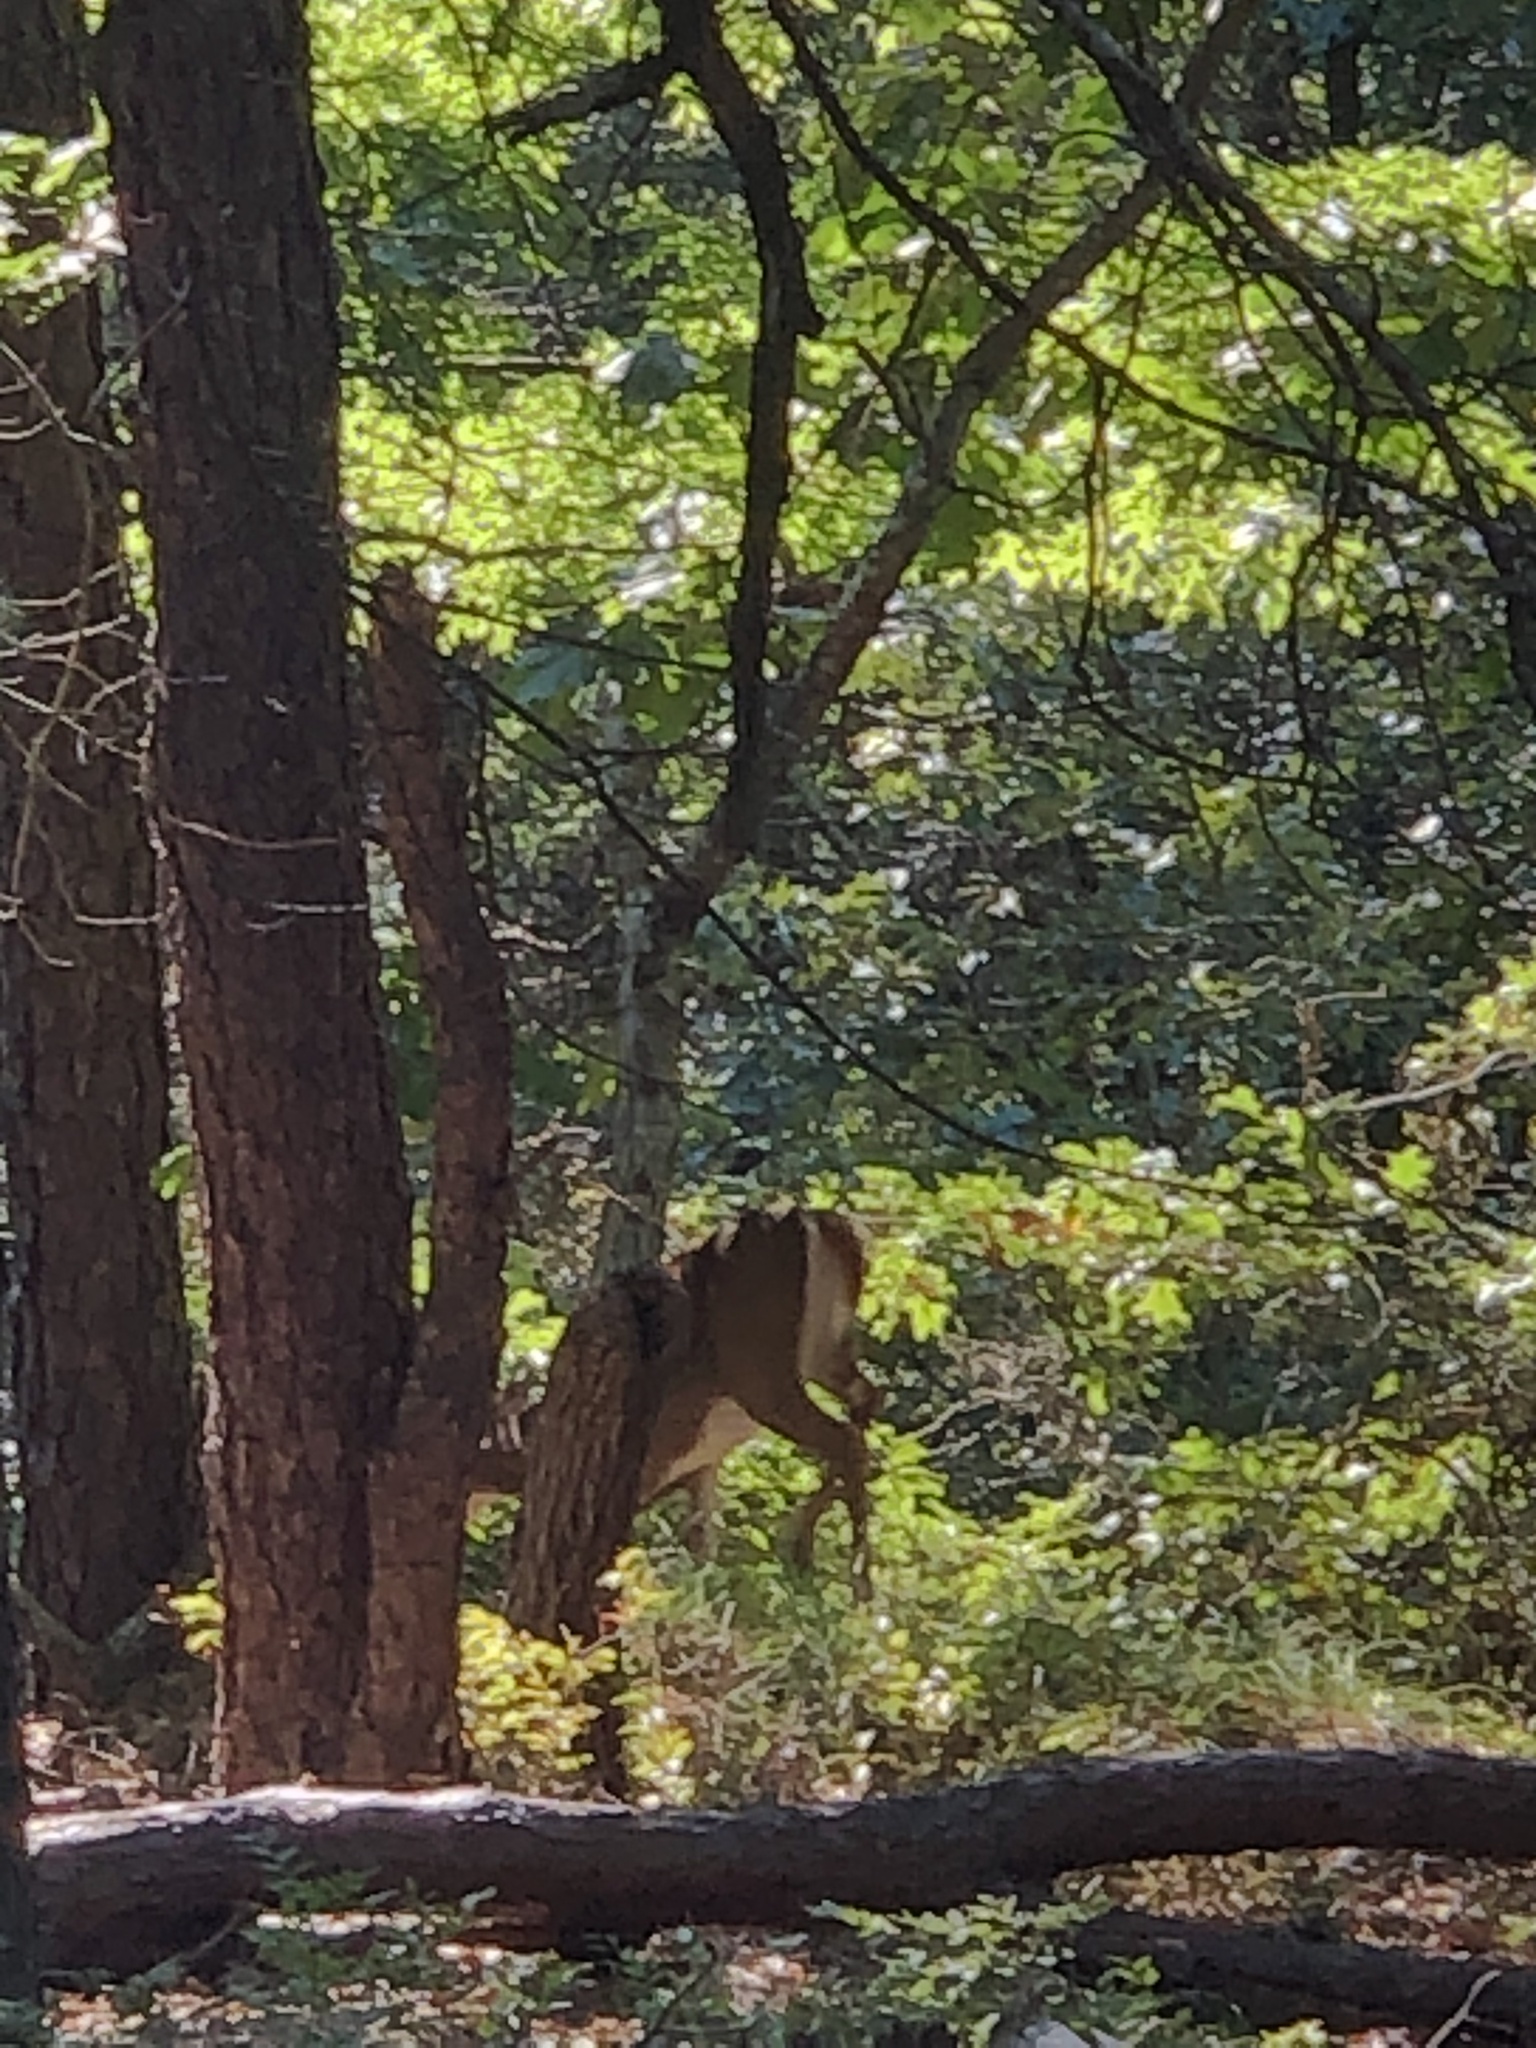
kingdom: Animalia
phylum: Chordata
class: Mammalia
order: Artiodactyla
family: Cervidae
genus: Odocoileus
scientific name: Odocoileus virginianus
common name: White-tailed deer
